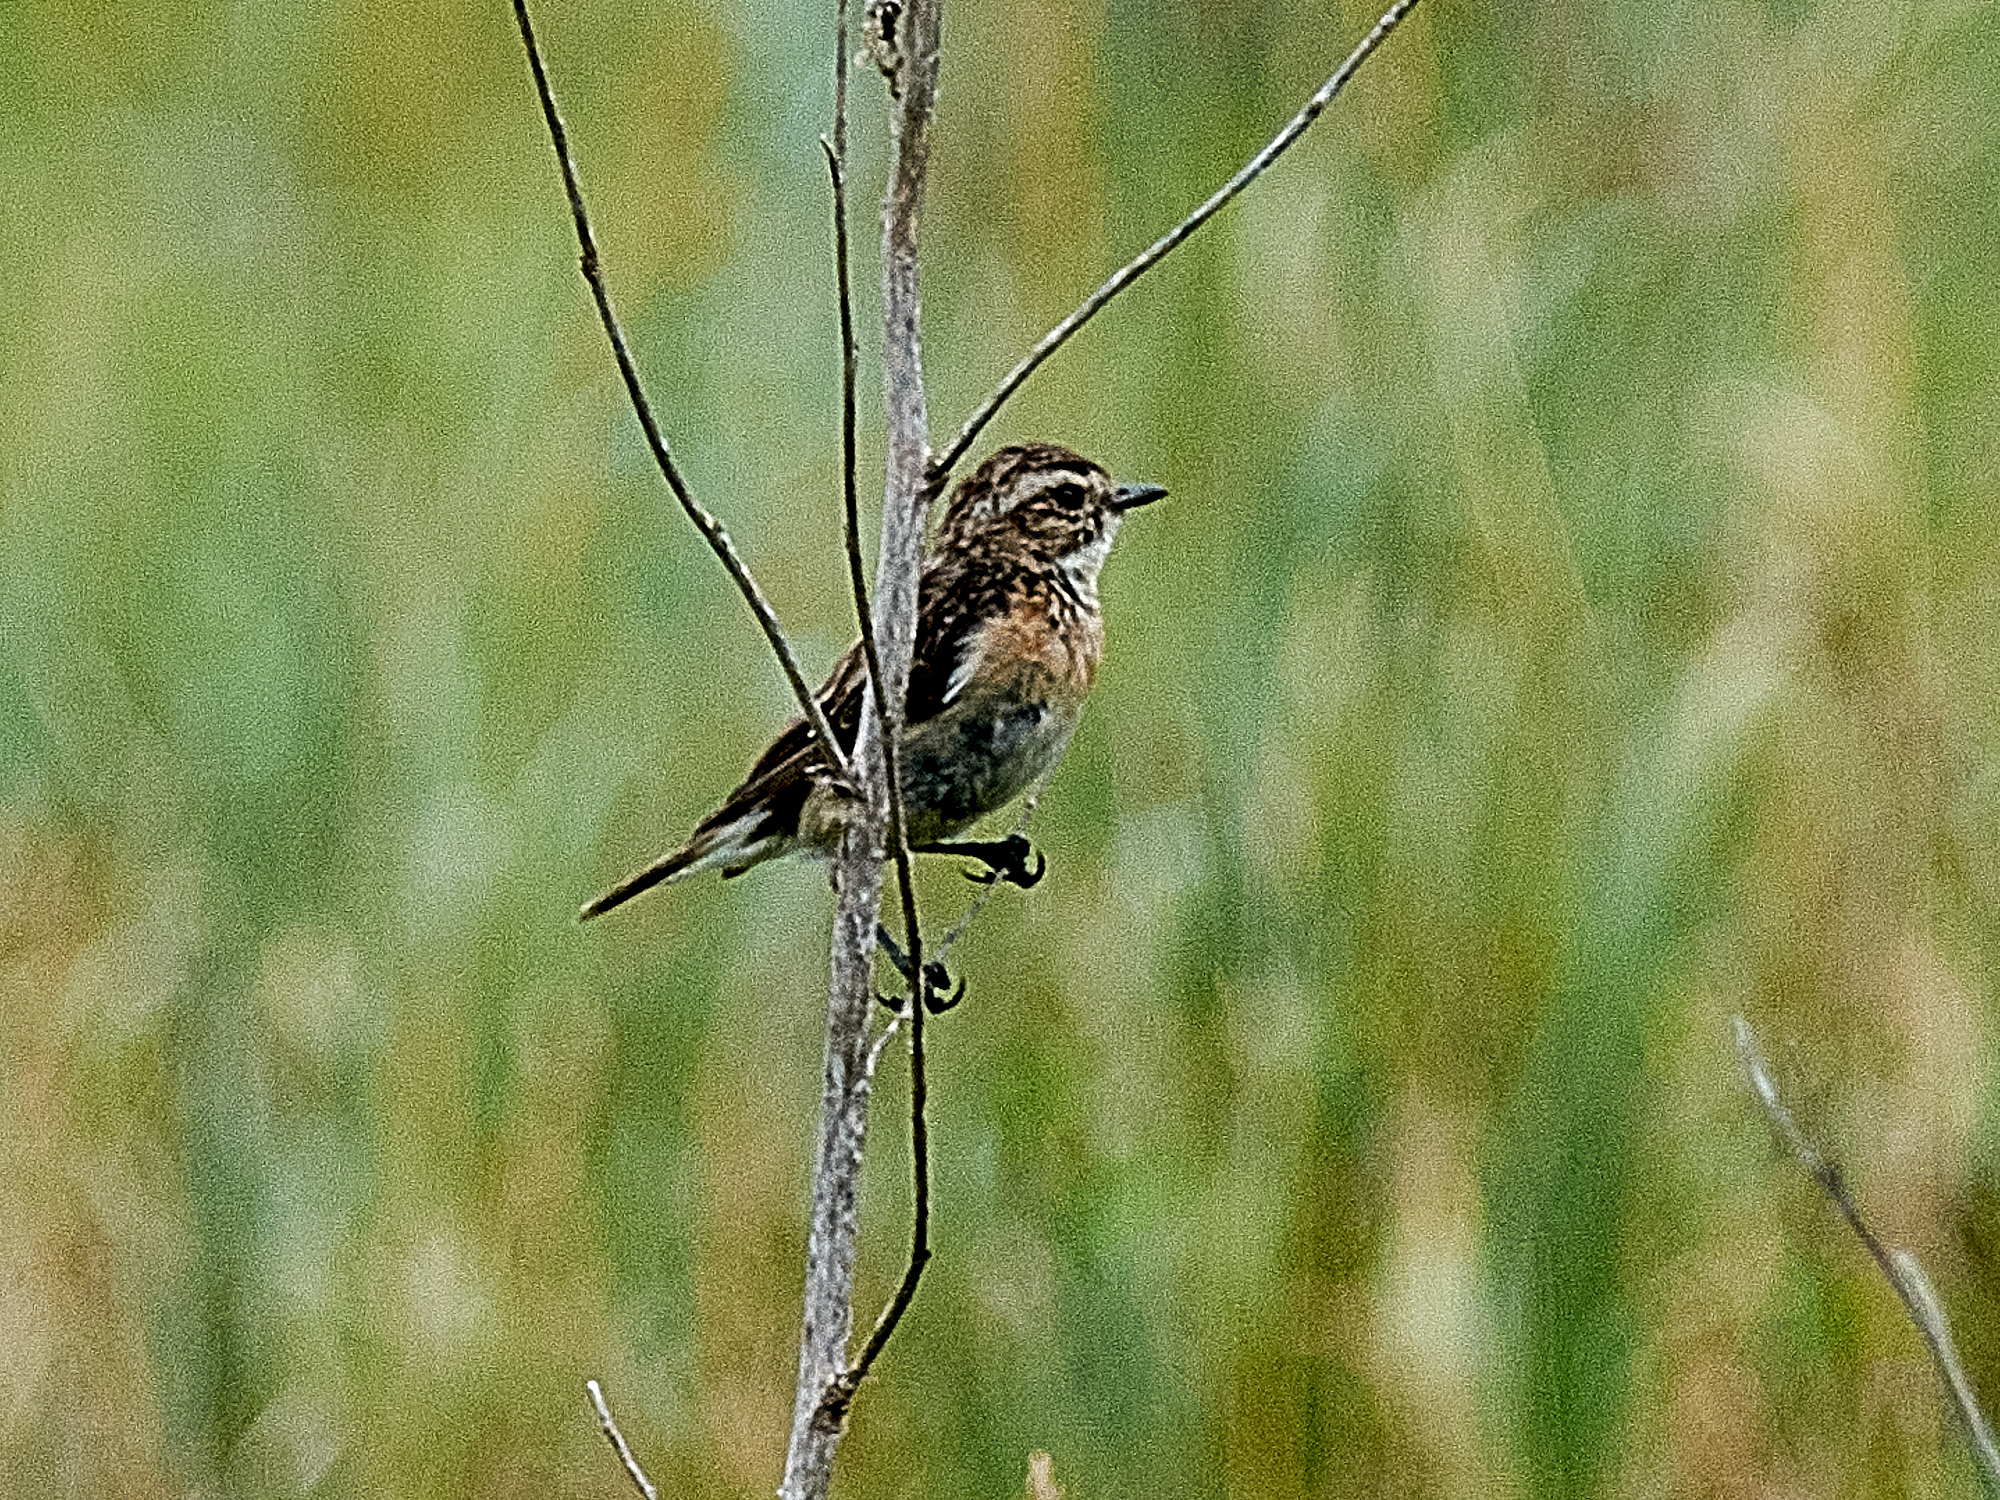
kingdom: Animalia
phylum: Chordata
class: Aves
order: Passeriformes
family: Muscicapidae
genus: Saxicola
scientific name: Saxicola rubetra
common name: Whinchat
